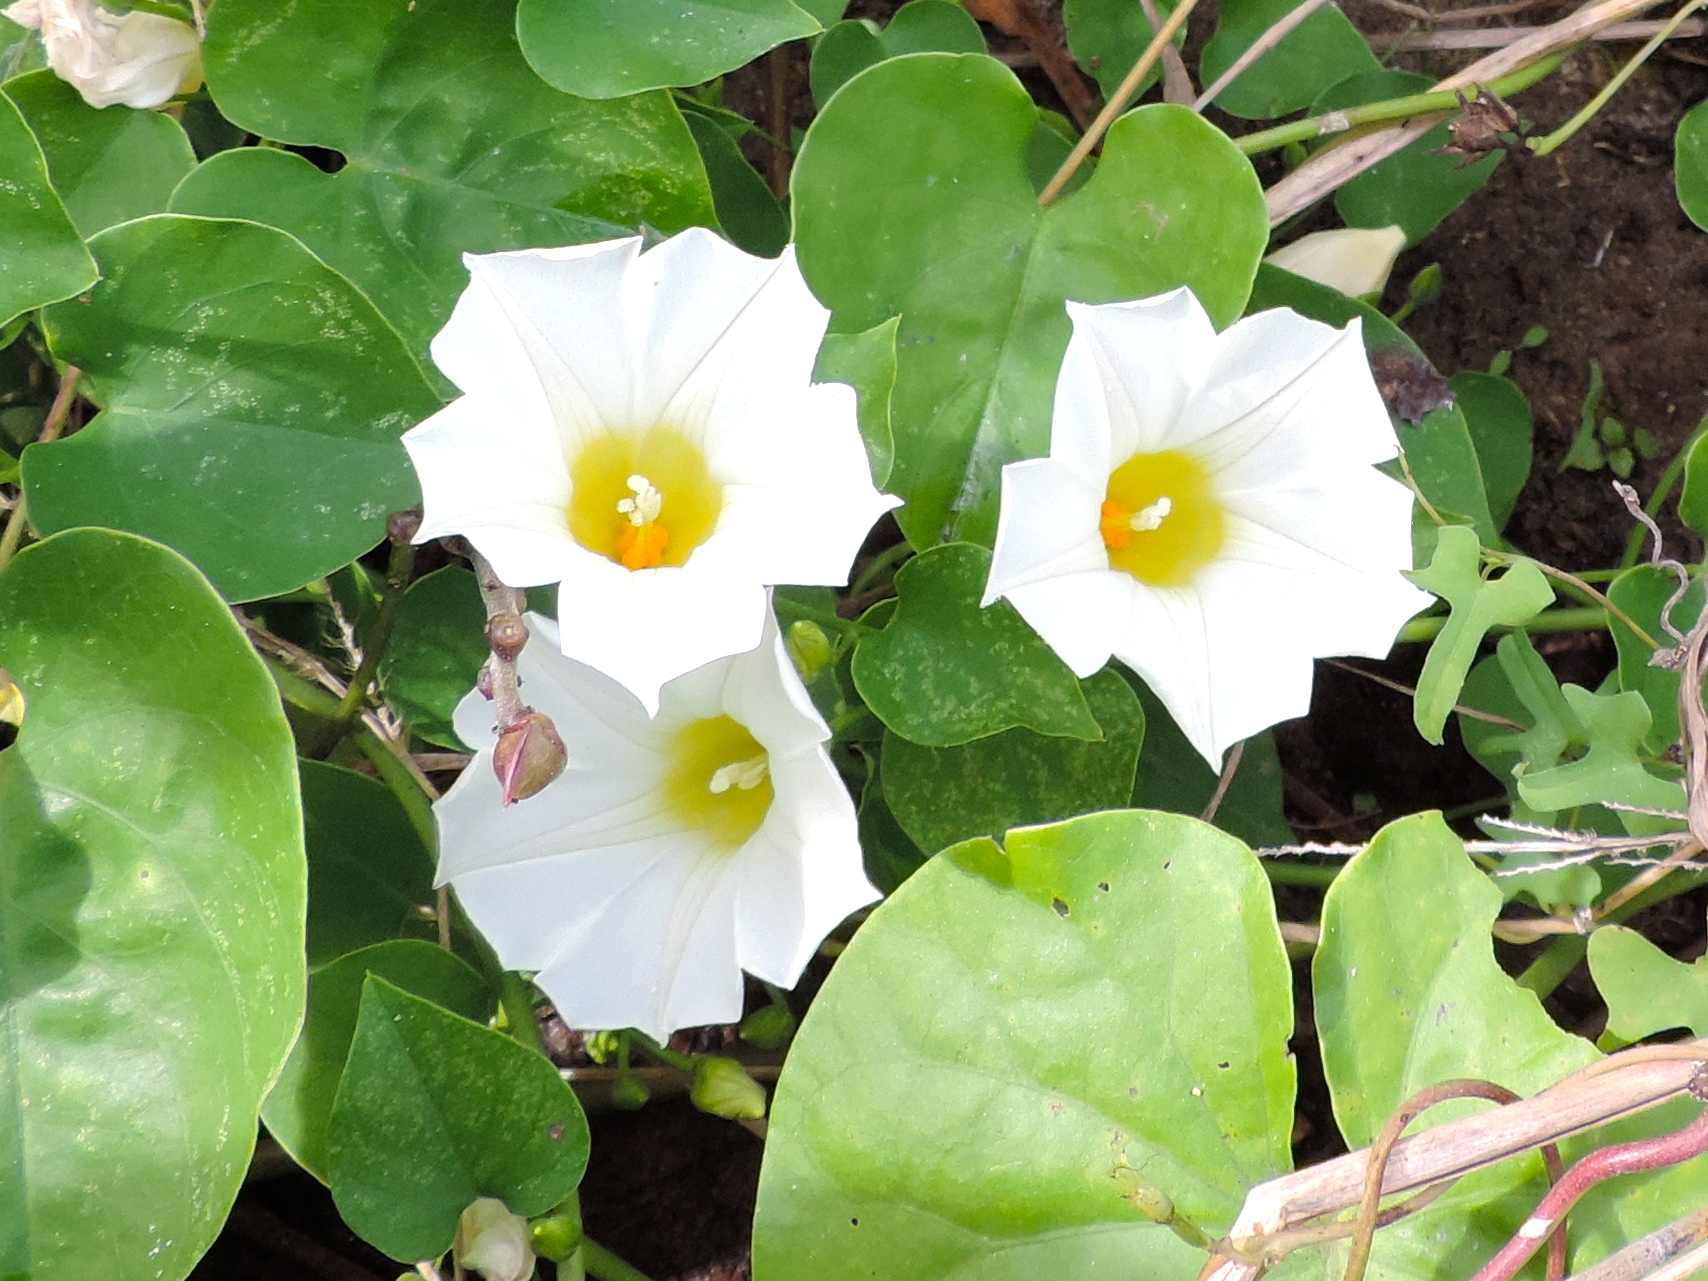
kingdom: Plantae
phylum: Tracheophyta
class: Magnoliopsida
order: Solanales
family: Convolvulaceae
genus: Ipomoea
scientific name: Ipomoea
